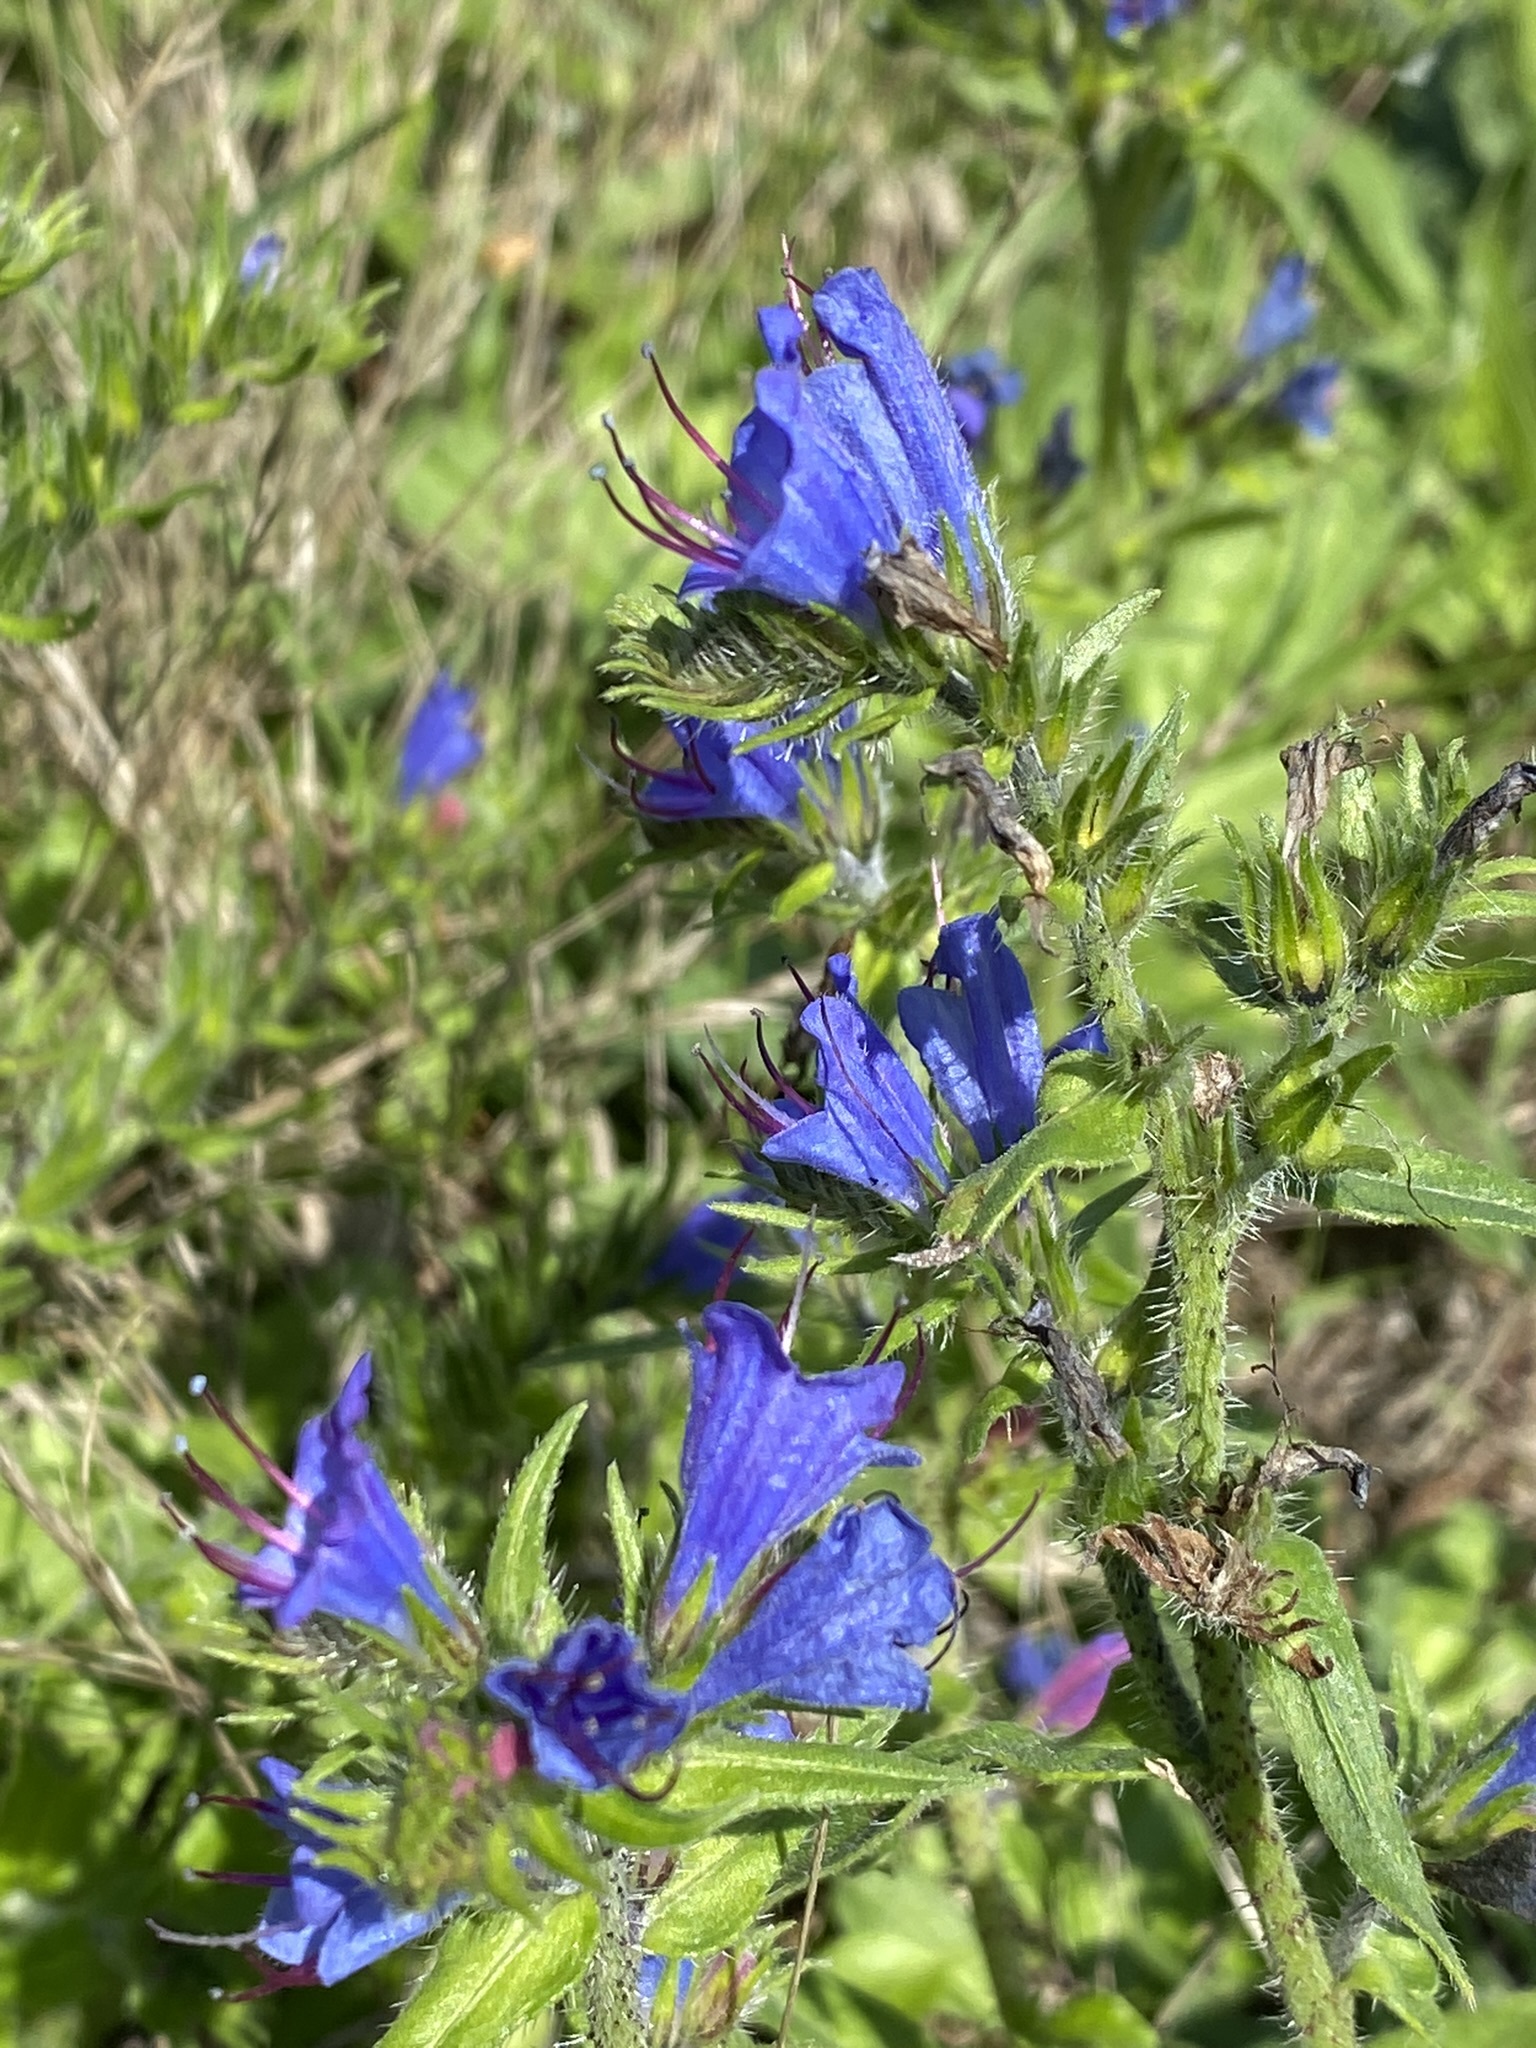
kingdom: Plantae
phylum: Tracheophyta
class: Magnoliopsida
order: Boraginales
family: Boraginaceae
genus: Echium
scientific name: Echium vulgare
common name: Common viper's bugloss
